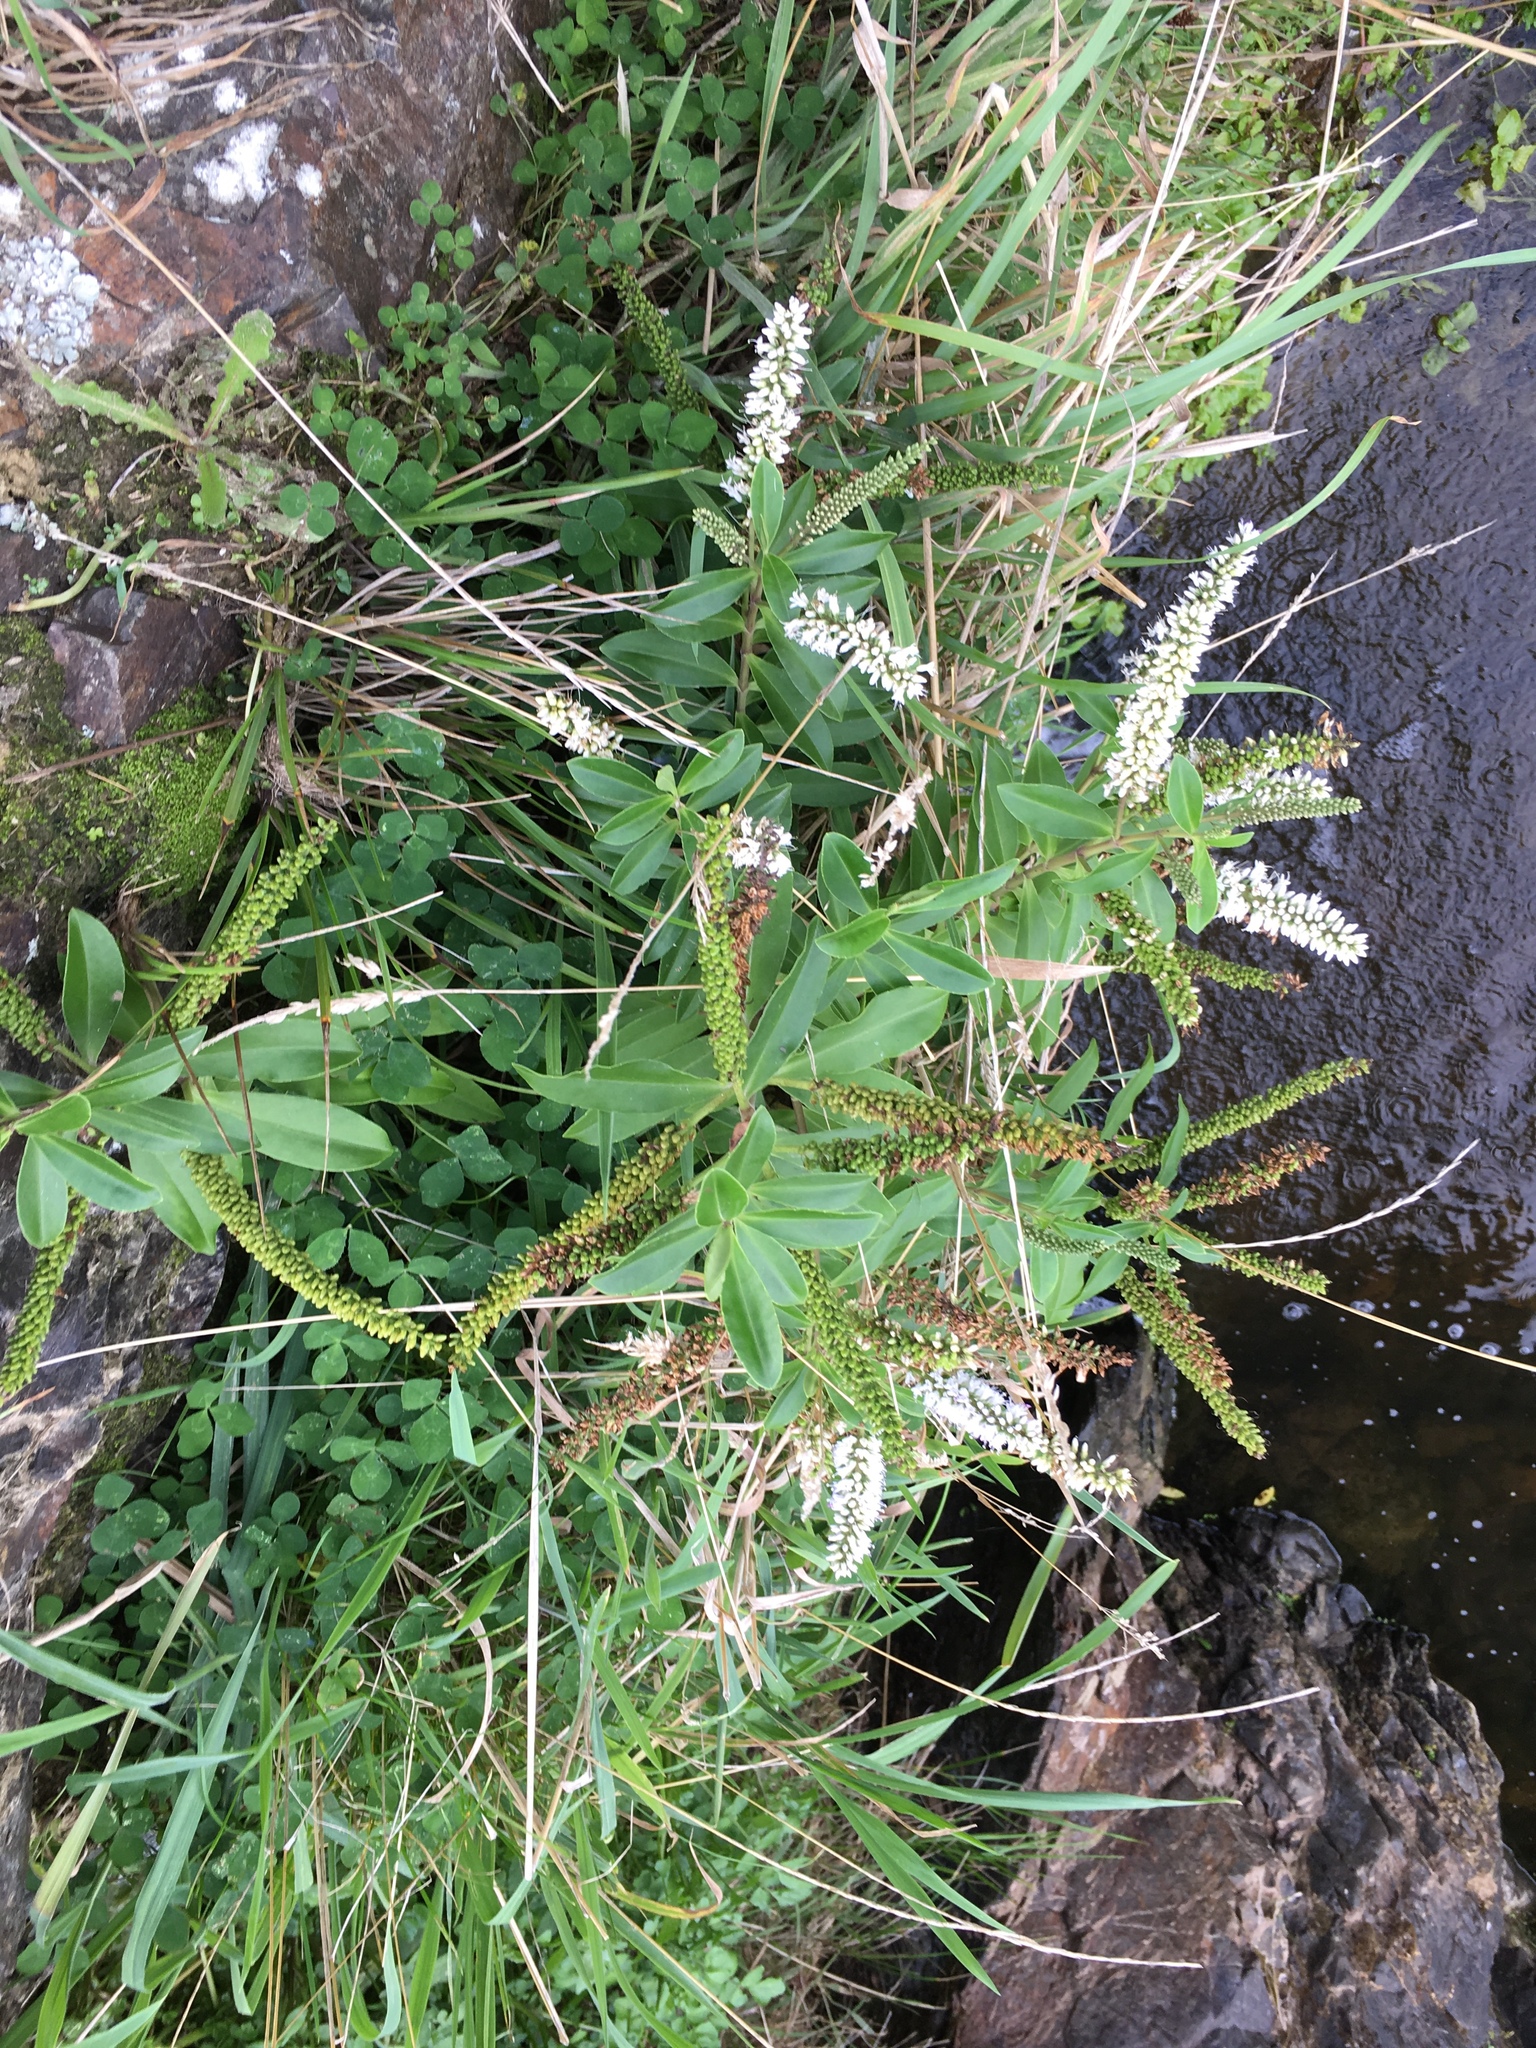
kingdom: Plantae
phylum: Tracheophyta
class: Magnoliopsida
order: Lamiales
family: Plantaginaceae
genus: Veronica
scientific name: Veronica stricta
